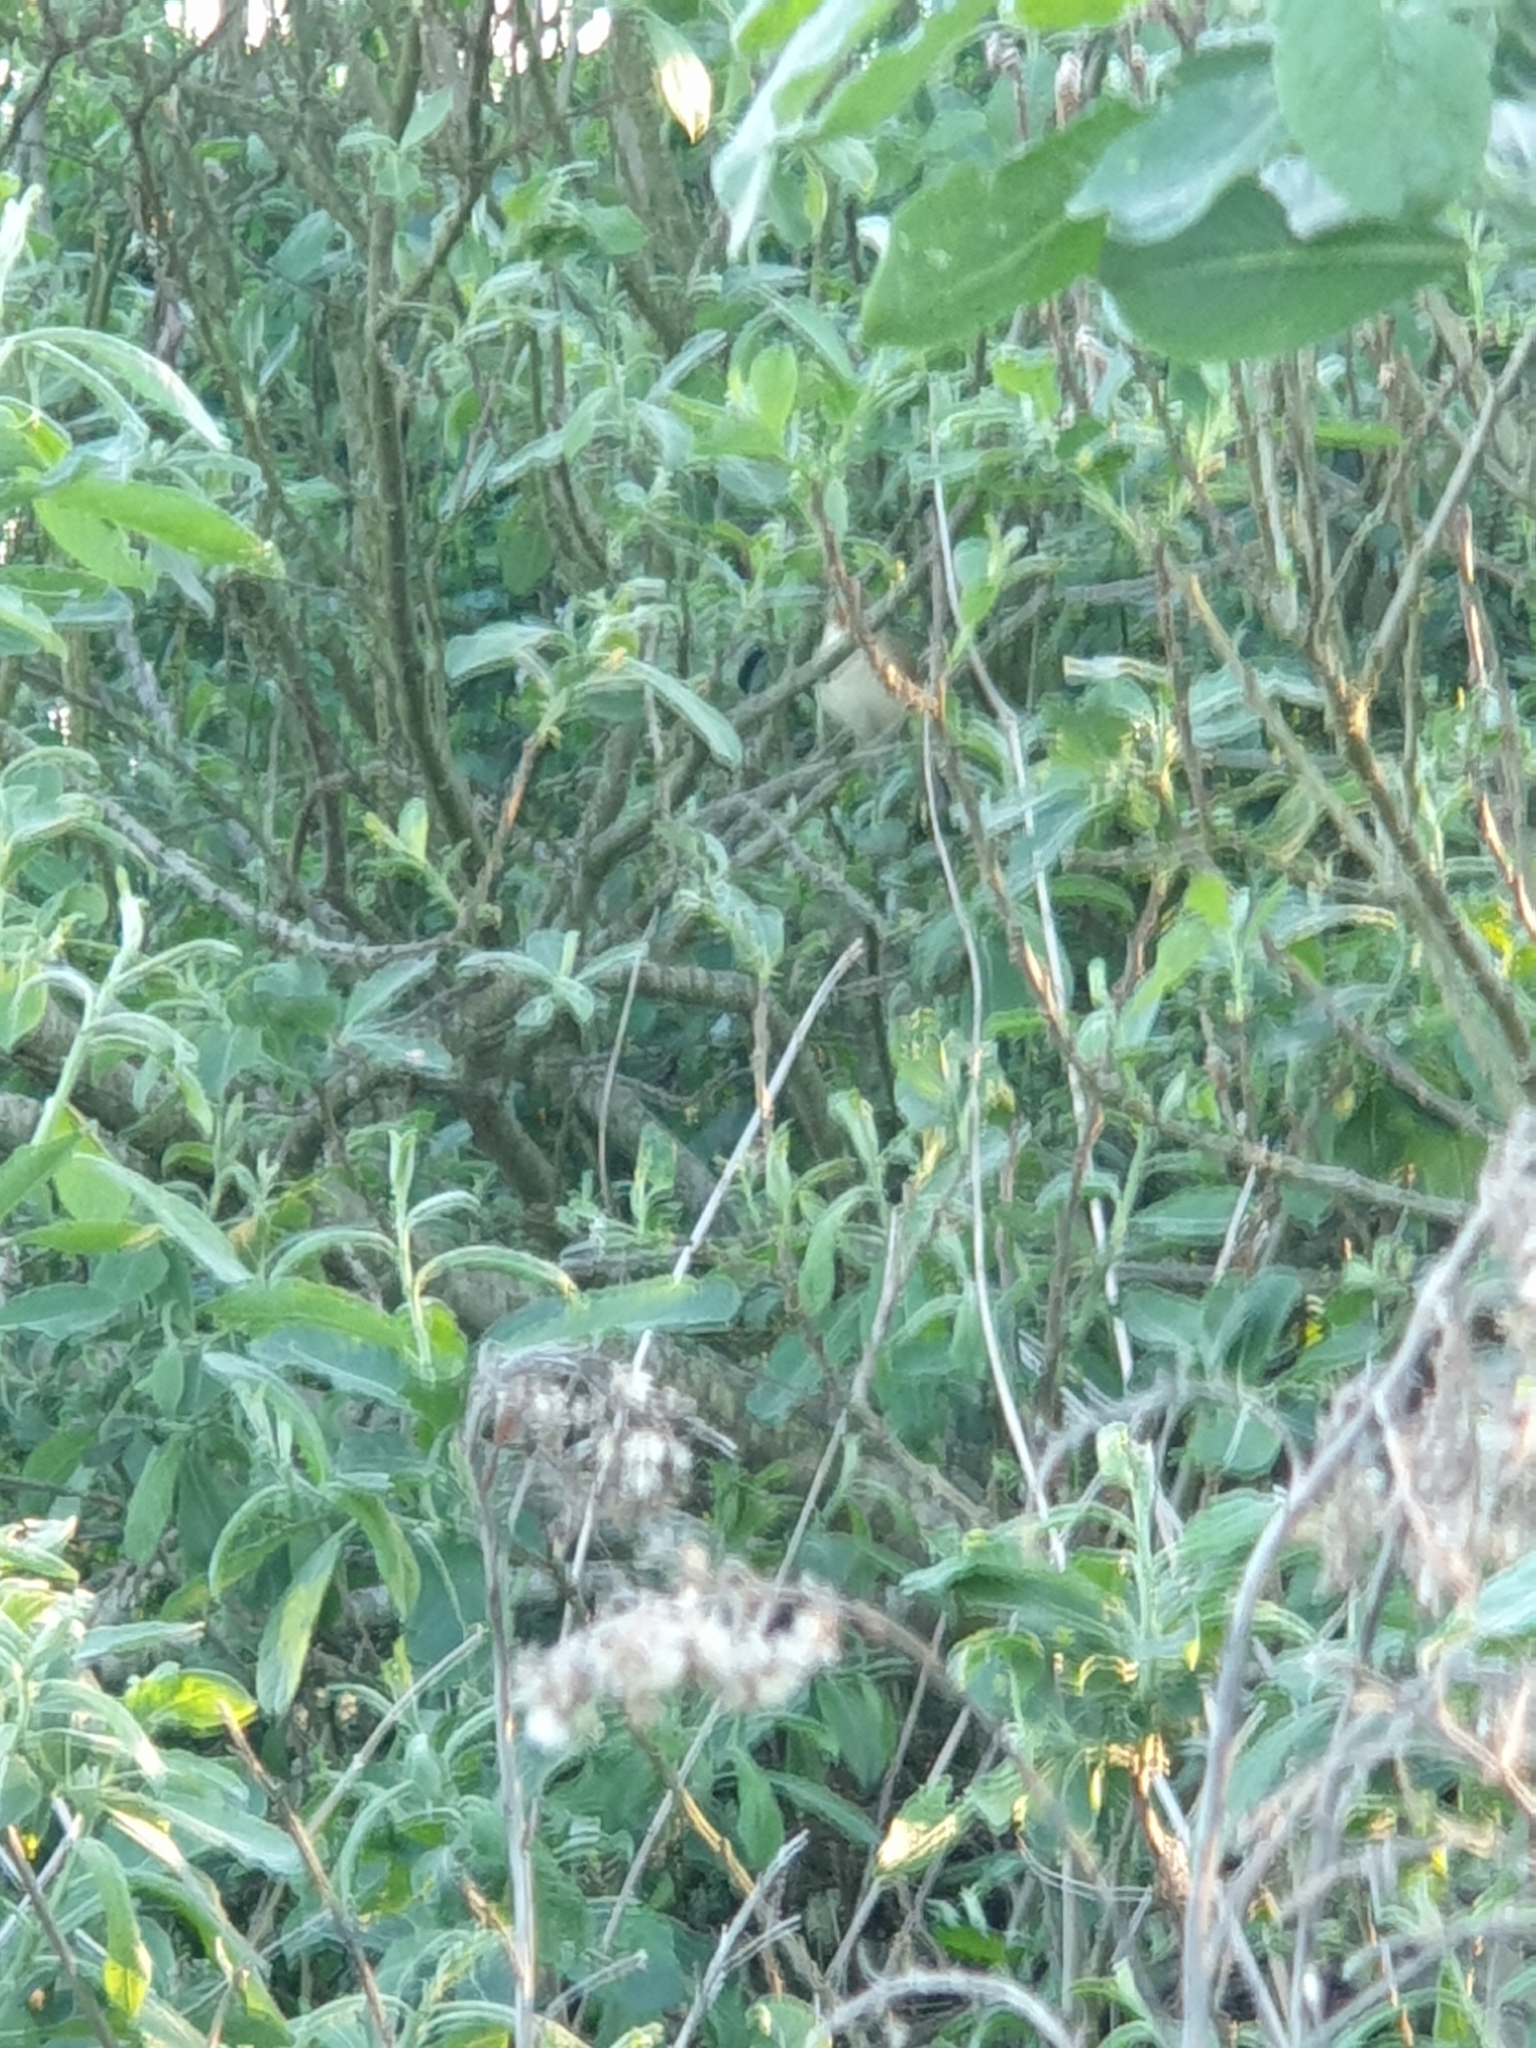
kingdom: Animalia
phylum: Chordata
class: Aves
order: Passeriformes
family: Acrocephalidae
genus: Acrocephalus
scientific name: Acrocephalus palustris
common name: Marsh warbler
